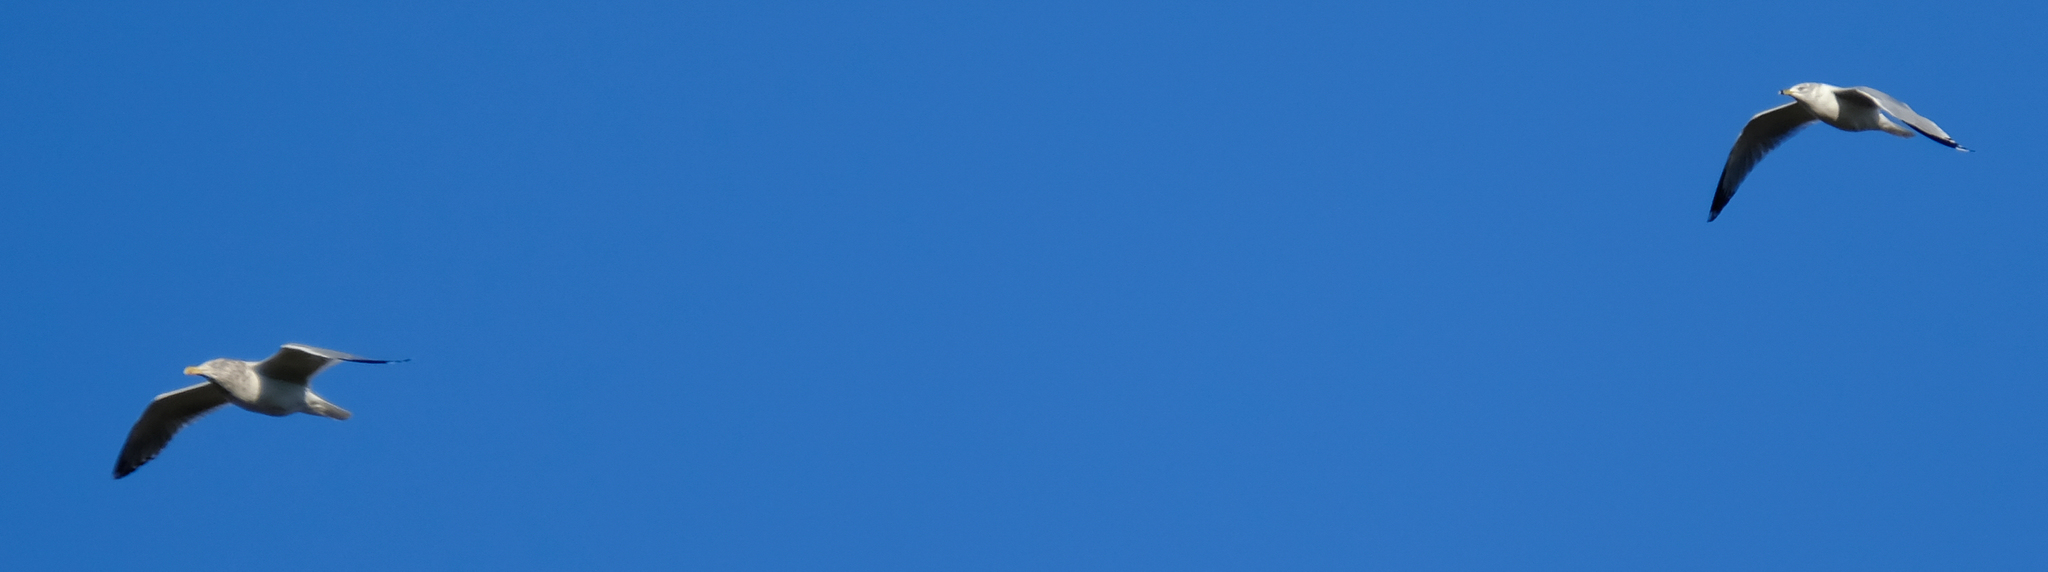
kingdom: Animalia
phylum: Chordata
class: Aves
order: Charadriiformes
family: Laridae
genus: Larus
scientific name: Larus argentatus
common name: Herring gull
